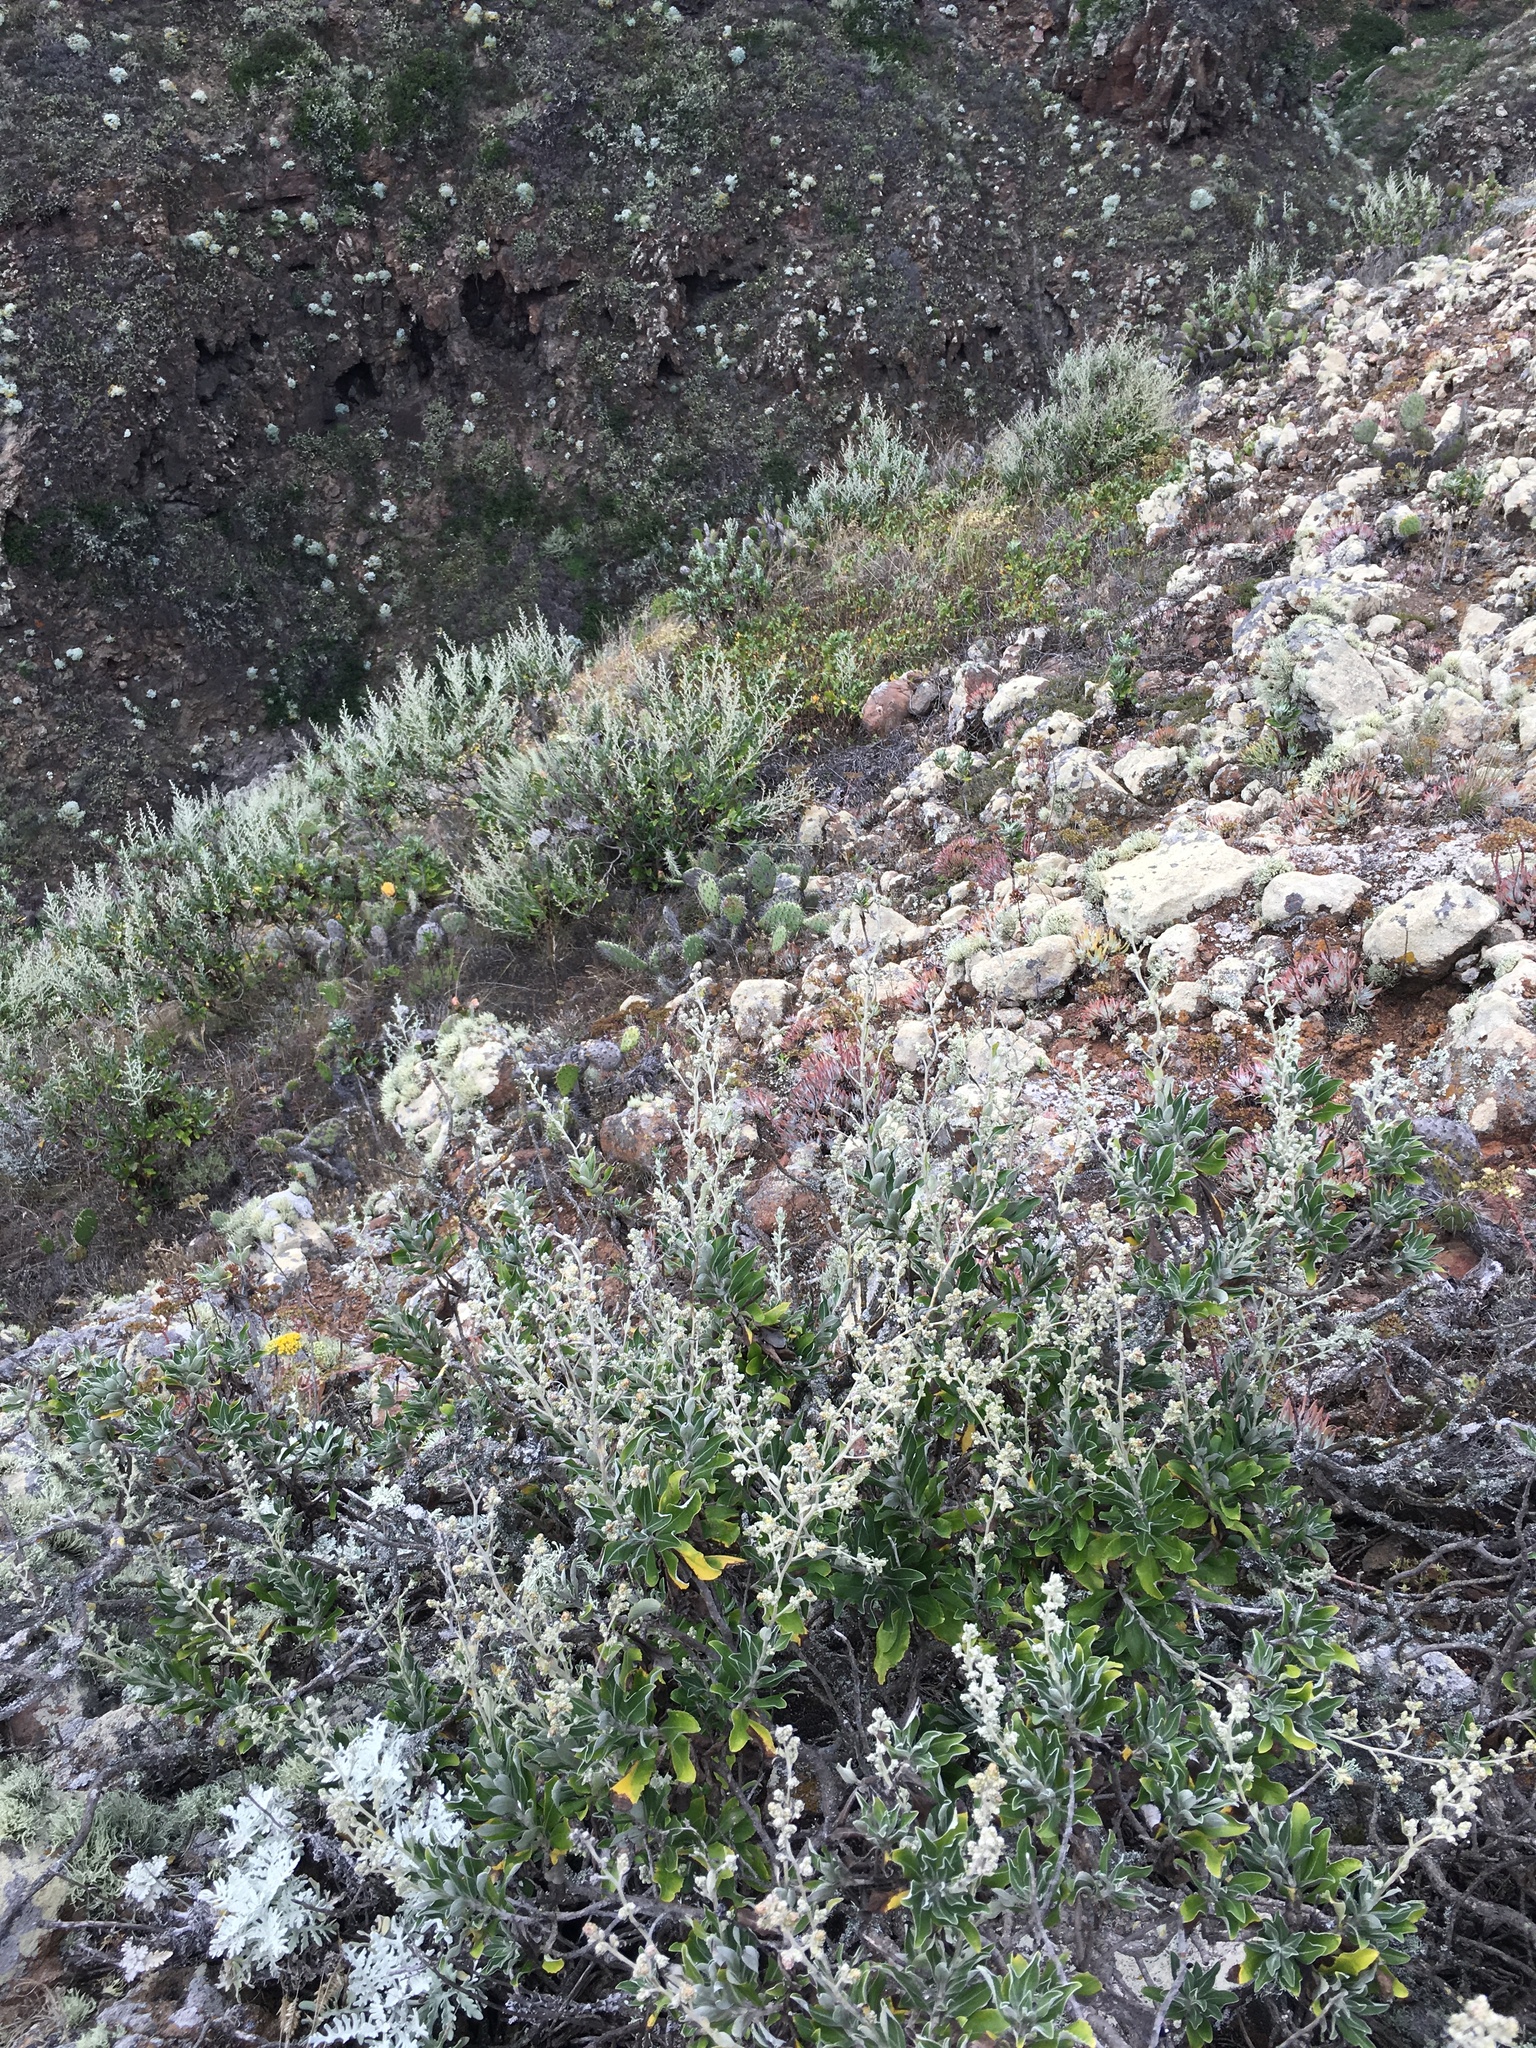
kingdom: Plantae
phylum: Tracheophyta
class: Magnoliopsida
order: Asterales
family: Asteraceae
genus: Hazardia
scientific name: Hazardia cana
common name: San clemente island bristleweed
